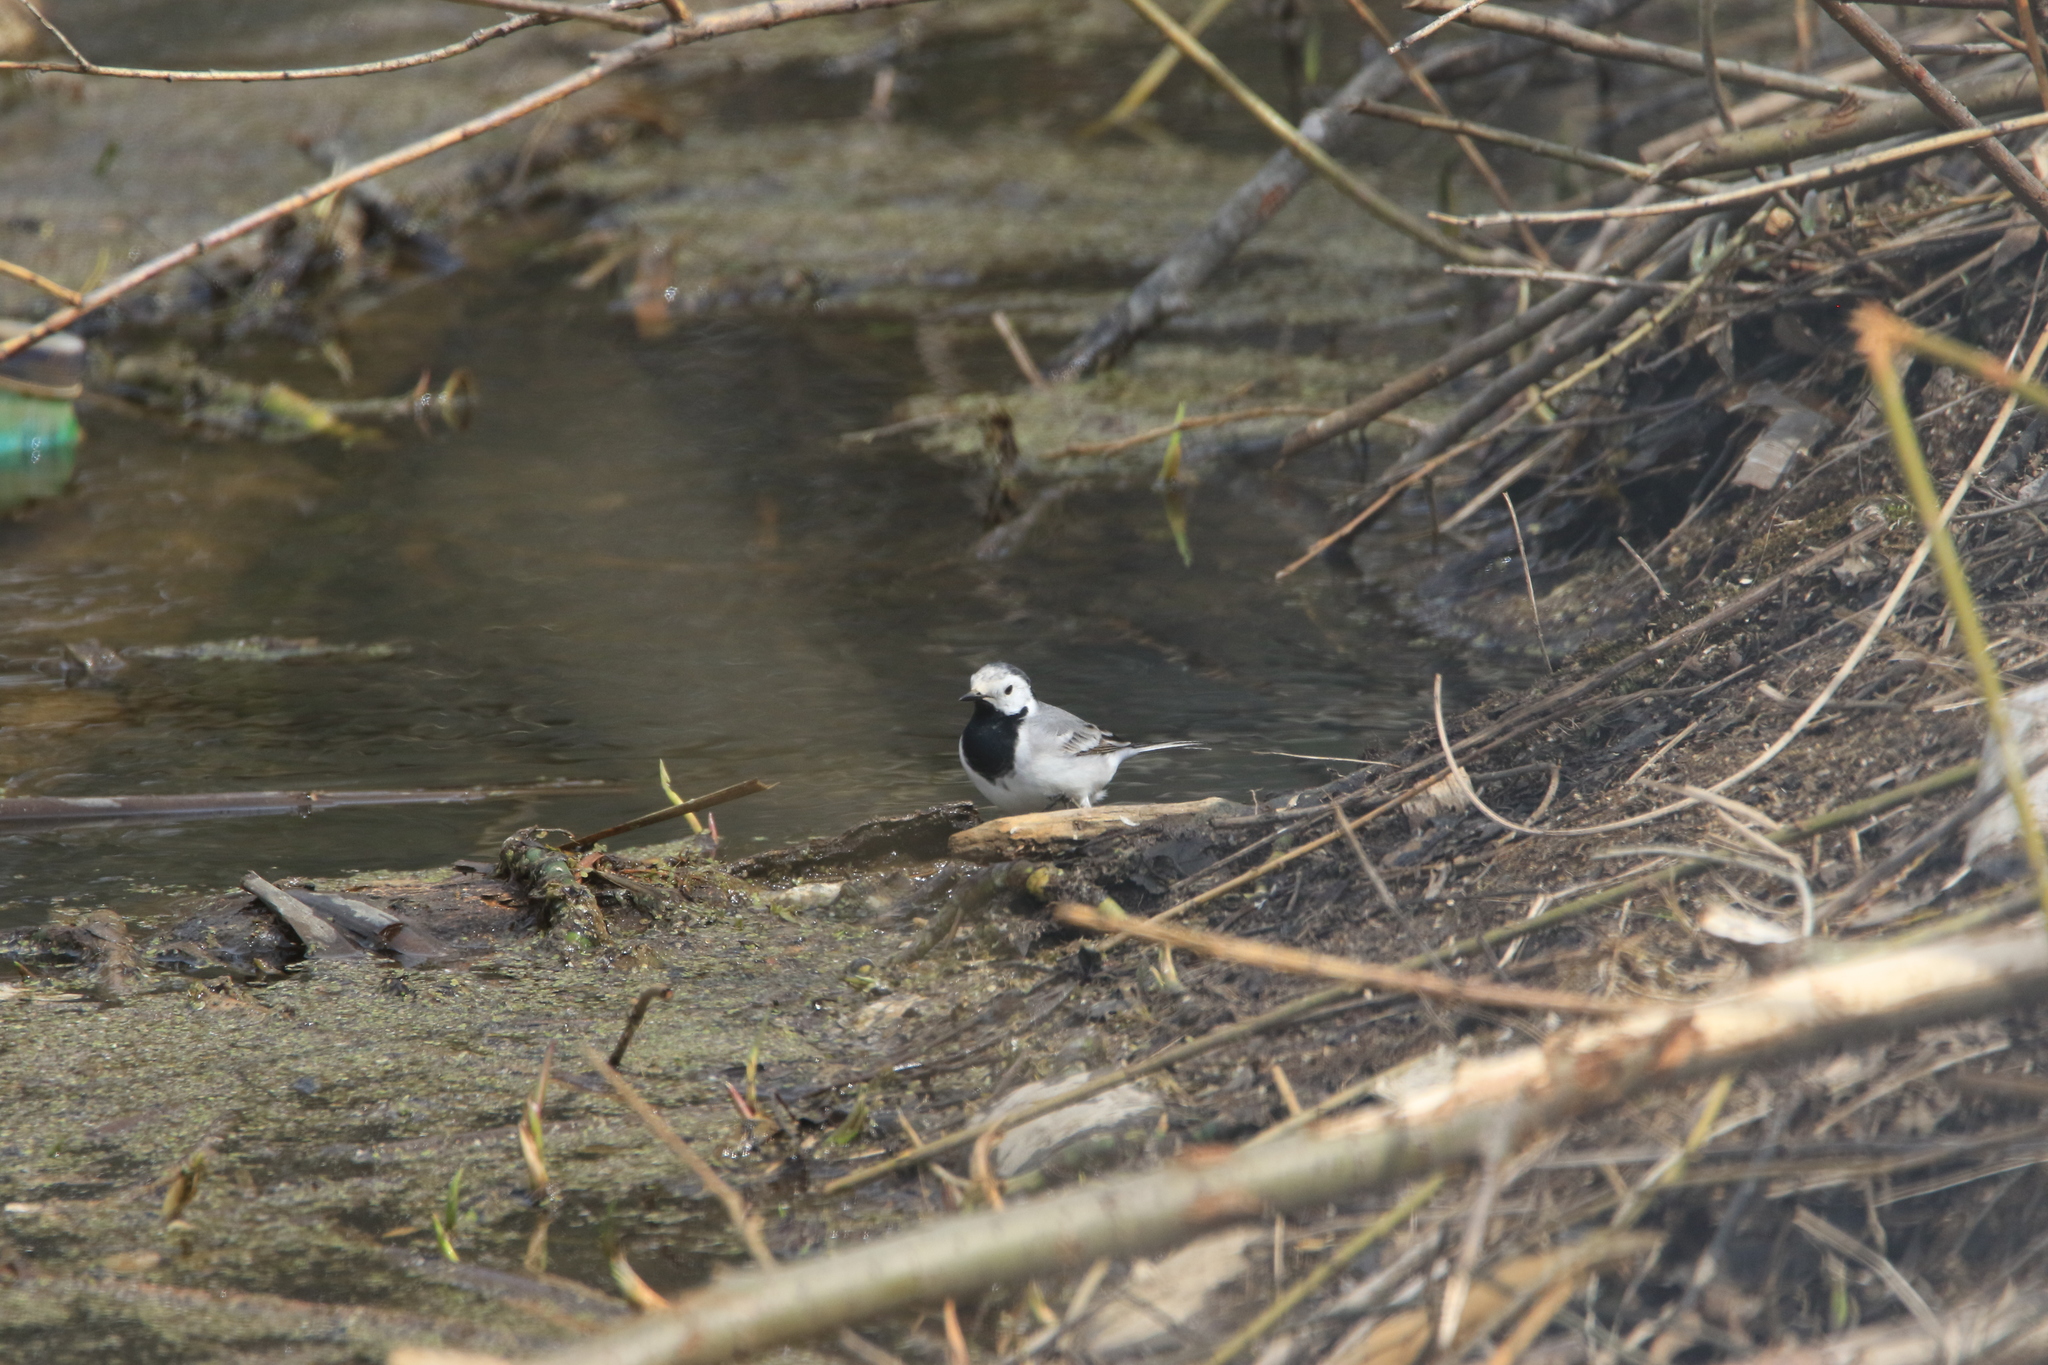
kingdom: Animalia
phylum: Chordata
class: Aves
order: Passeriformes
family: Motacillidae
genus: Motacilla
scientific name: Motacilla alba
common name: White wagtail
